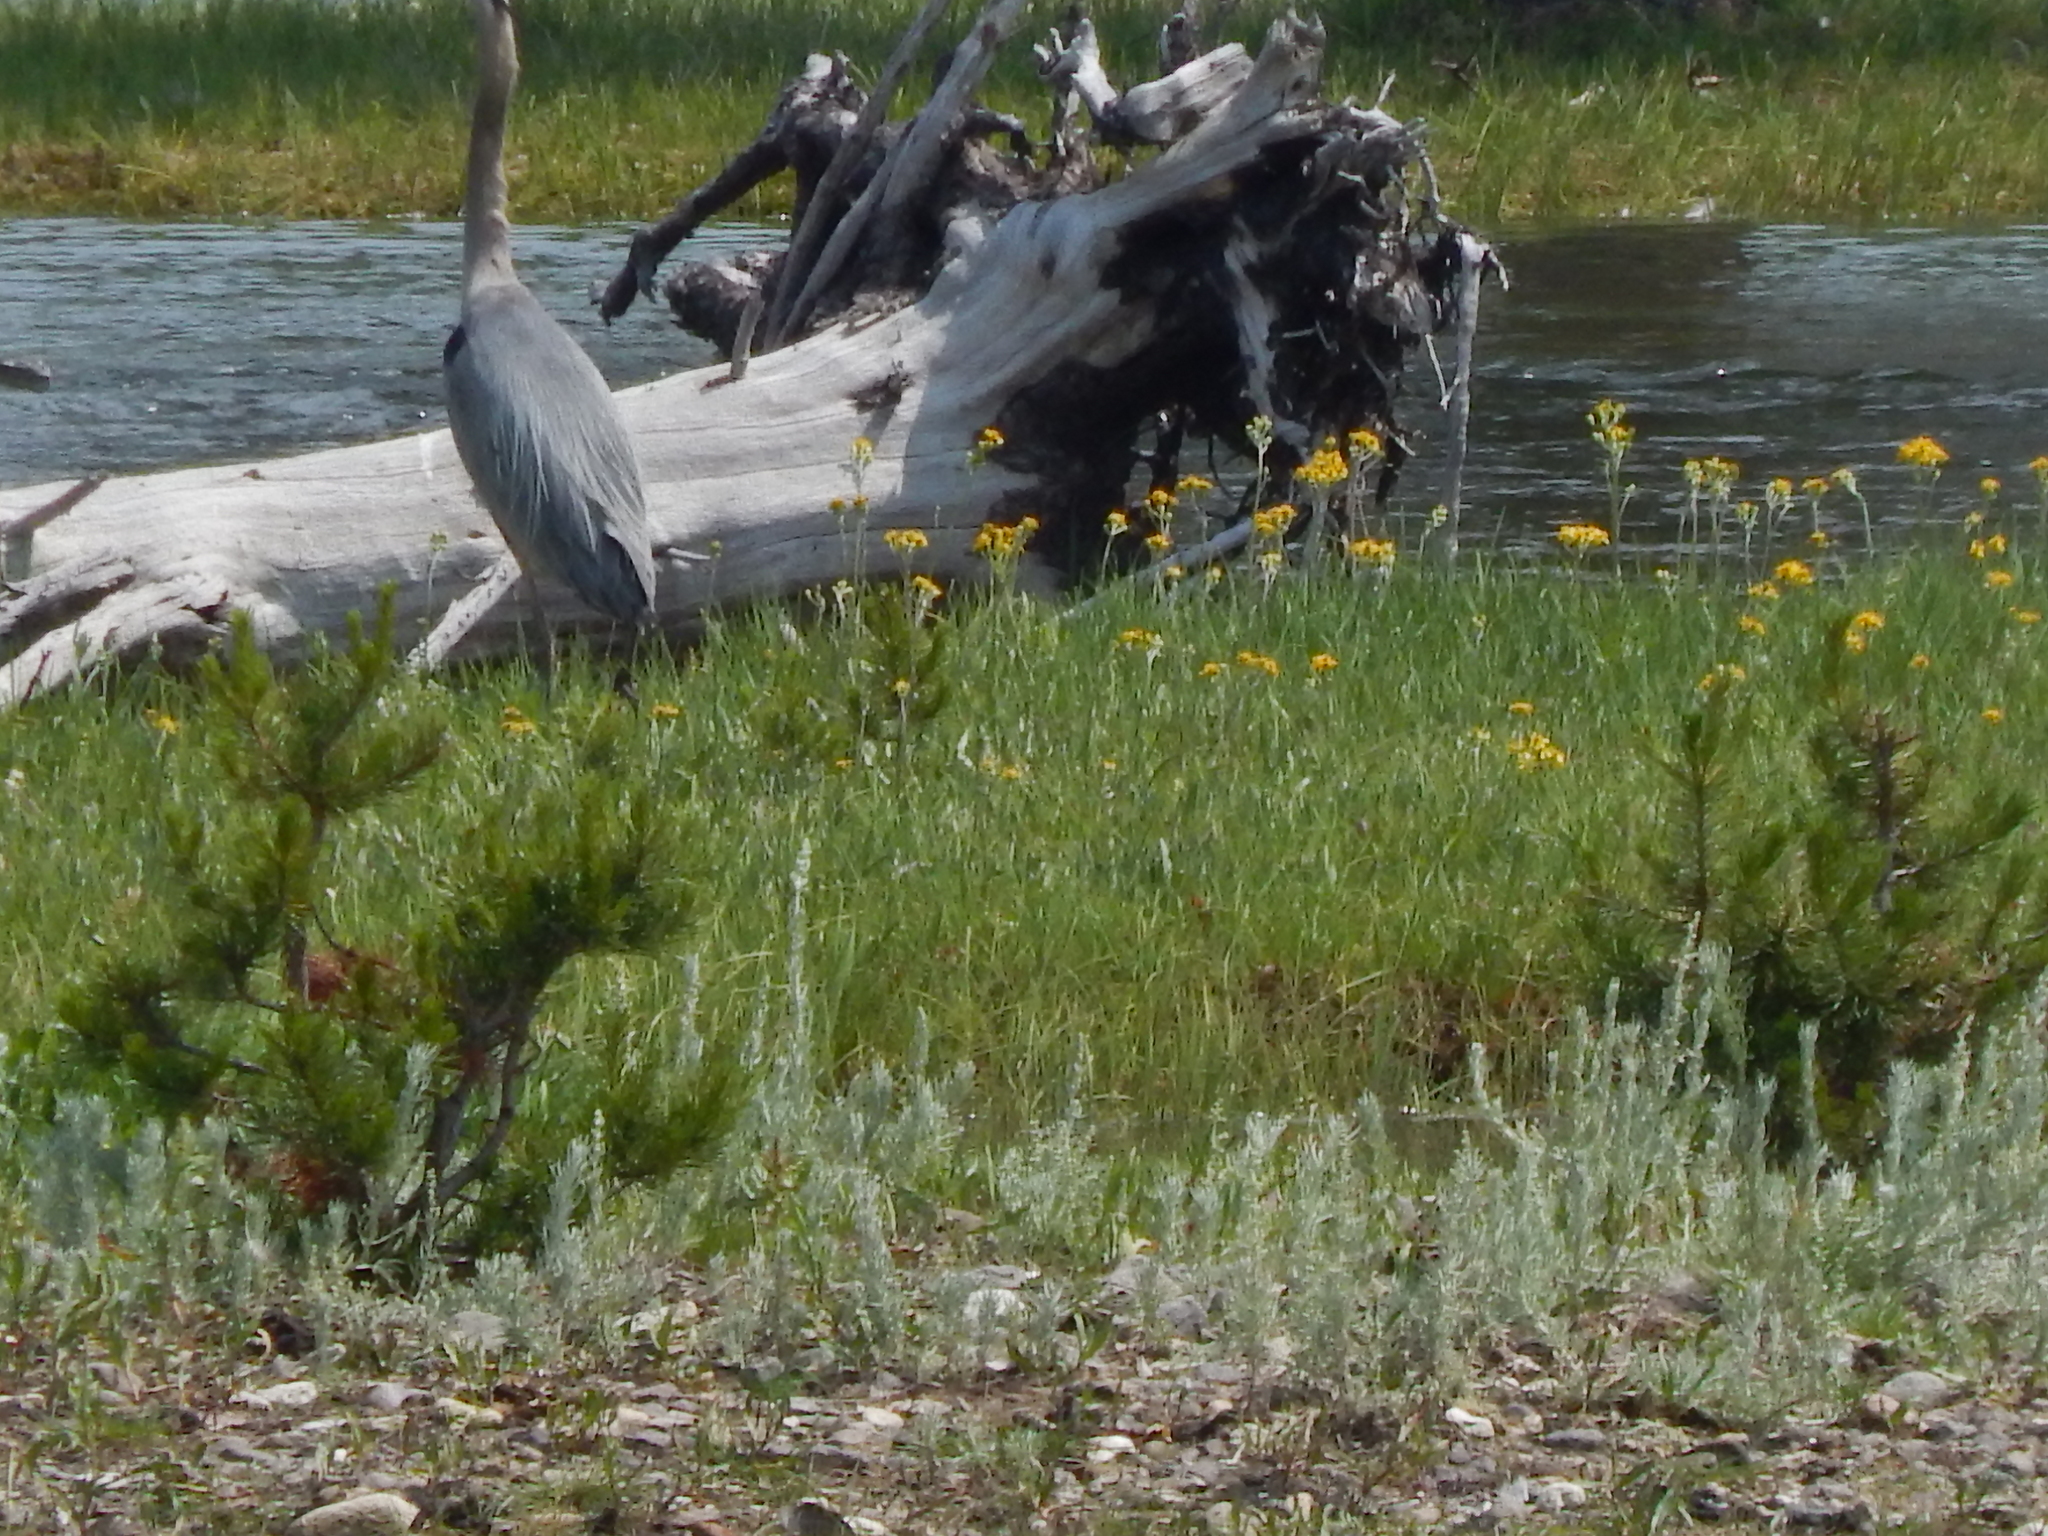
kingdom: Animalia
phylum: Chordata
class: Aves
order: Pelecaniformes
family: Ardeidae
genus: Ardea
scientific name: Ardea herodias
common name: Great blue heron
